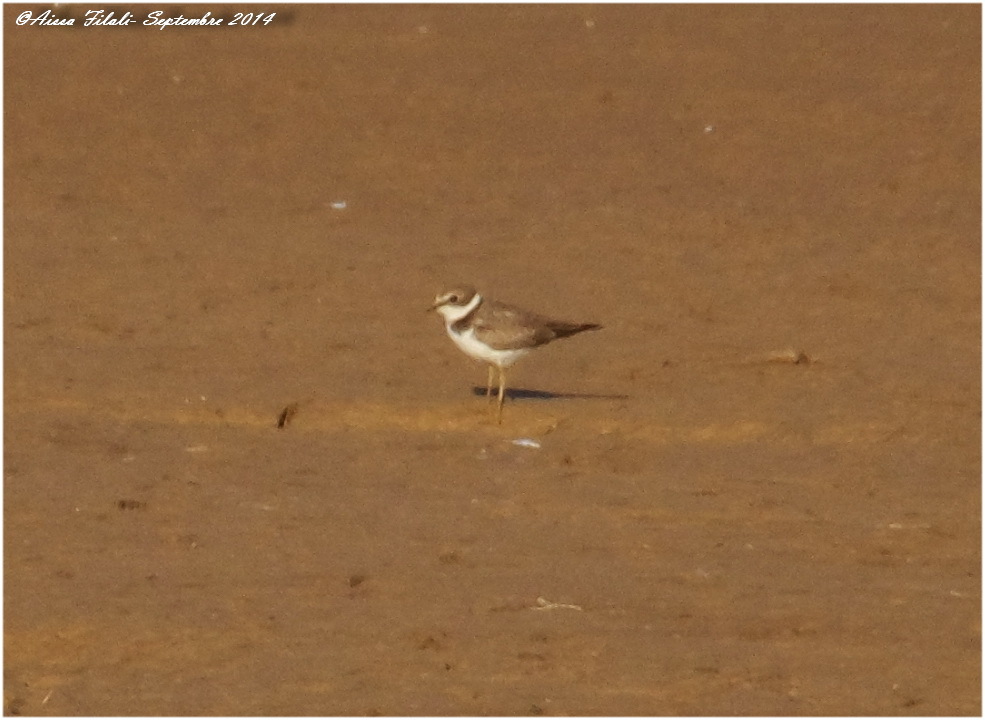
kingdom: Animalia
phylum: Chordata
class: Aves
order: Charadriiformes
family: Charadriidae
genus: Charadrius
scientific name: Charadrius alexandrinus
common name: Kentish plover
